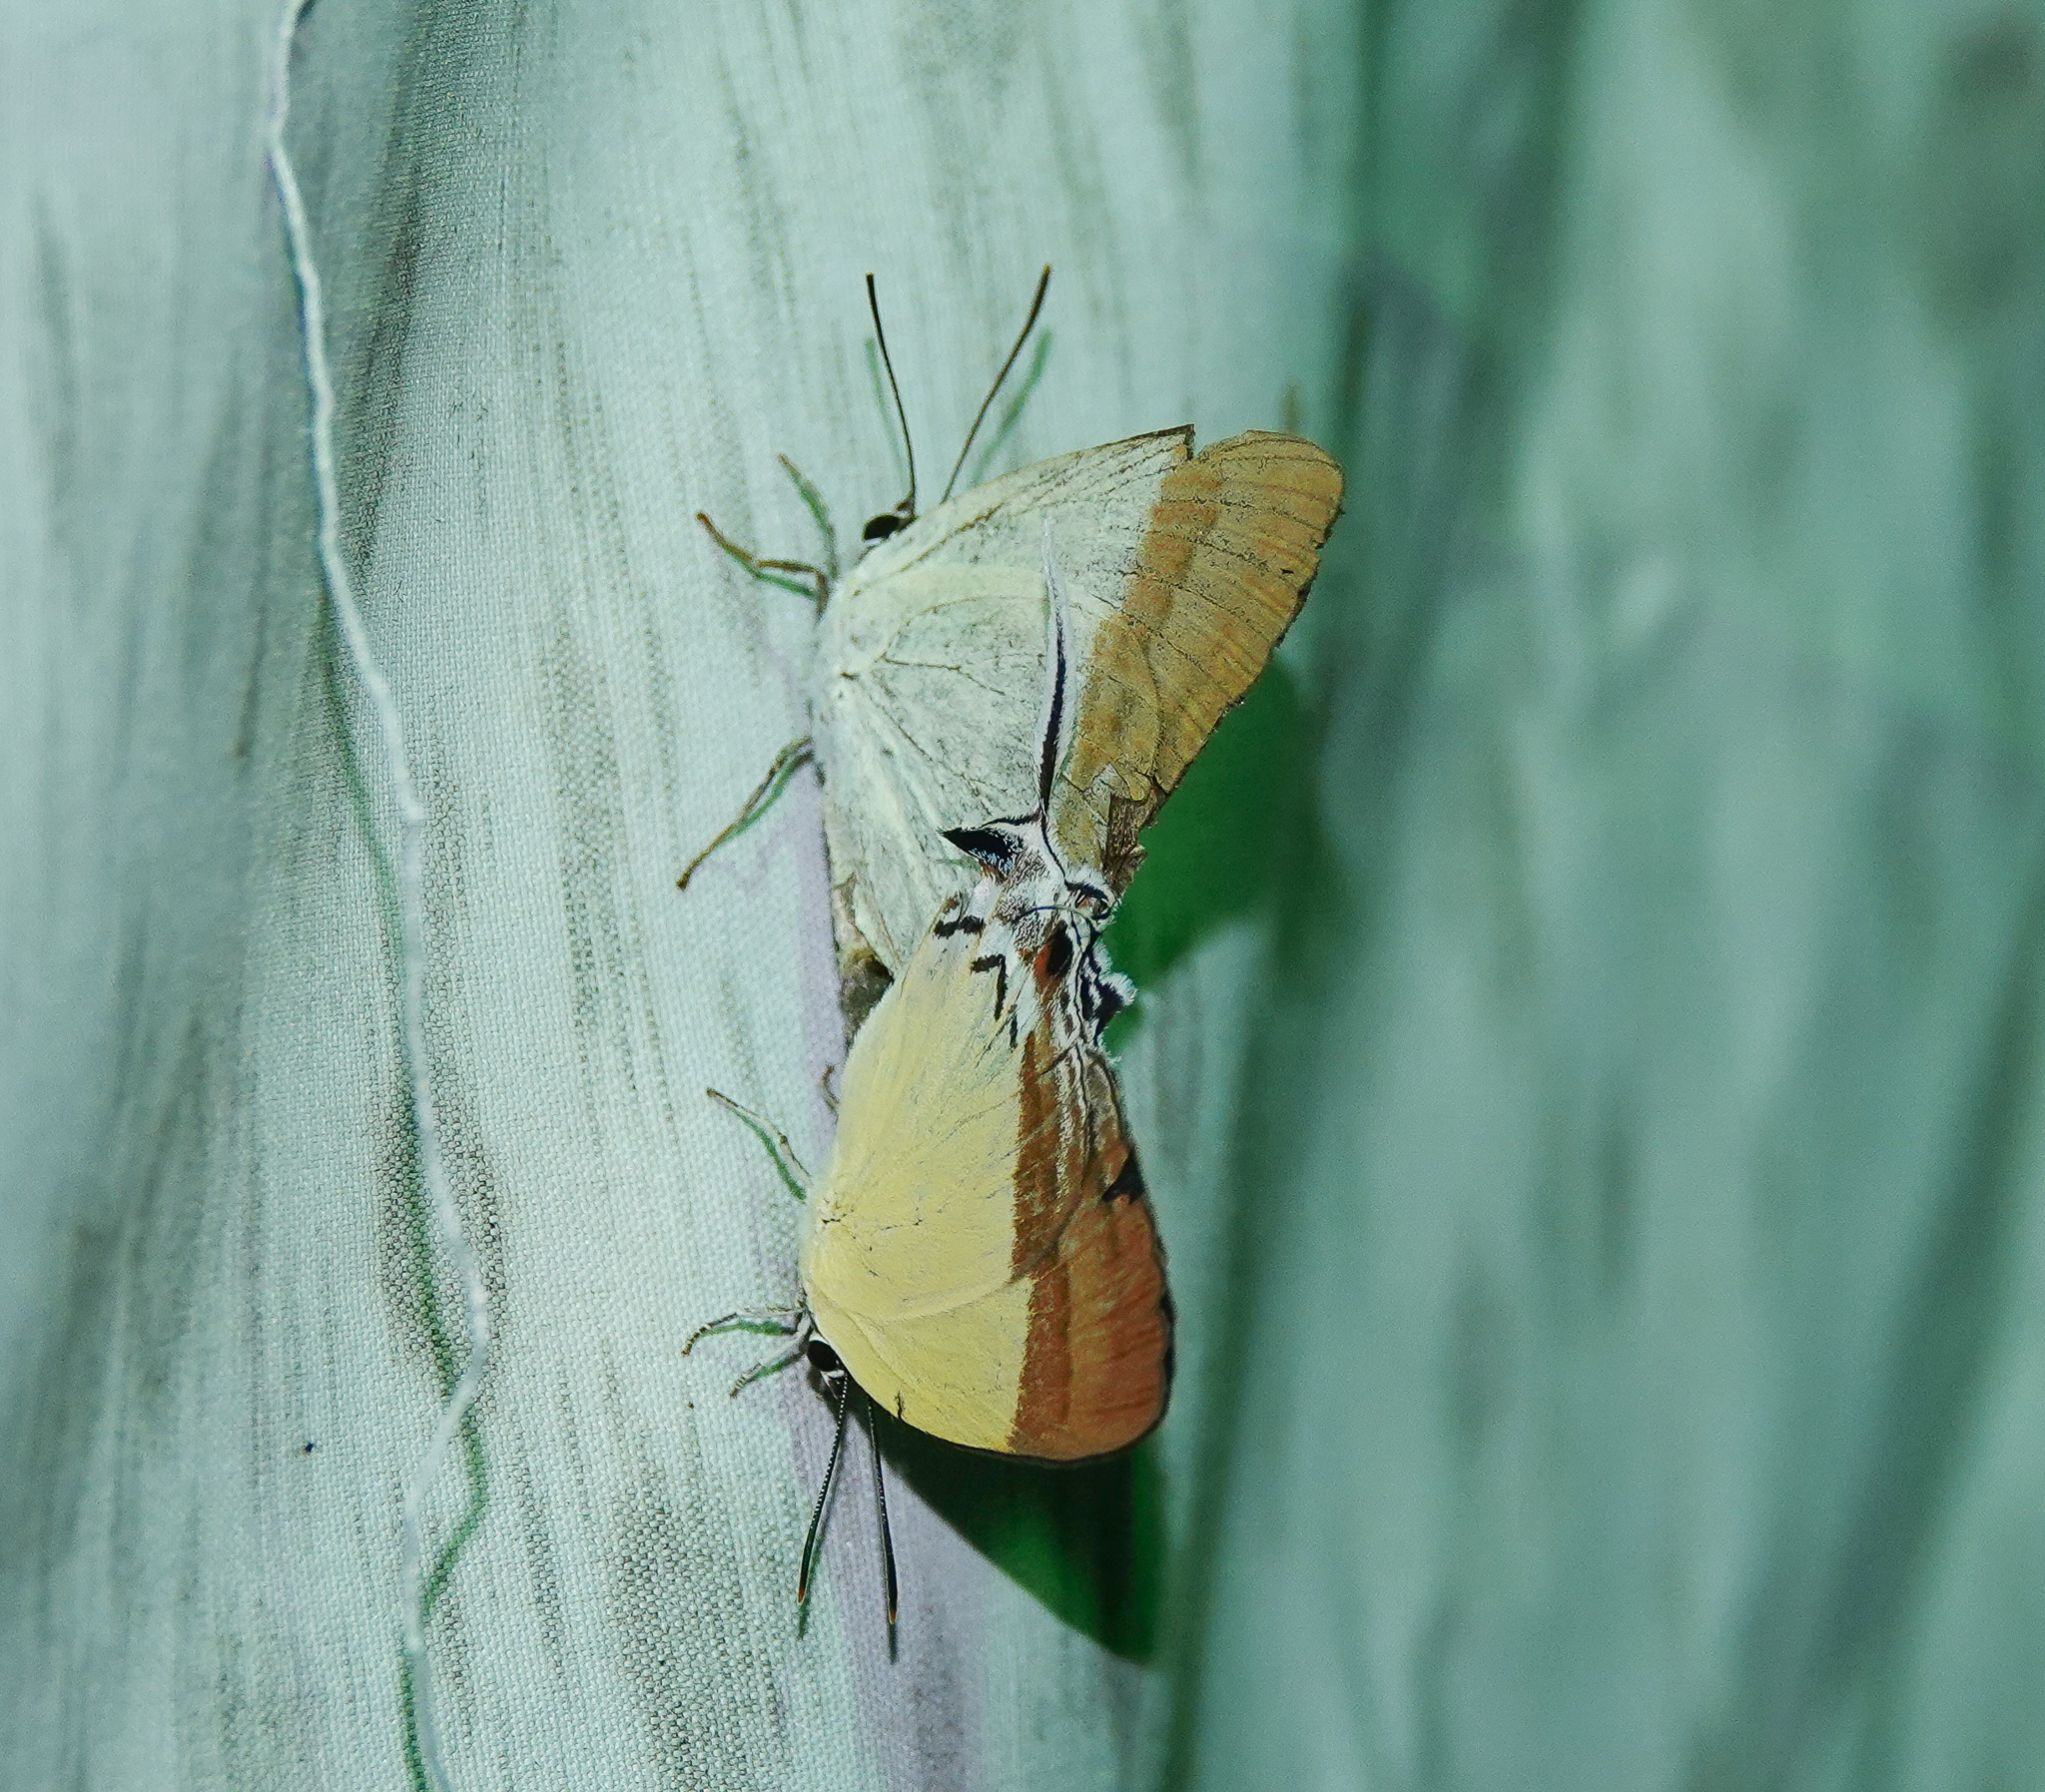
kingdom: Animalia
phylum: Arthropoda
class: Insecta
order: Lepidoptera
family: Lycaenidae
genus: Charana
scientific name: Charana mandarinus
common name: Mandarin blue
